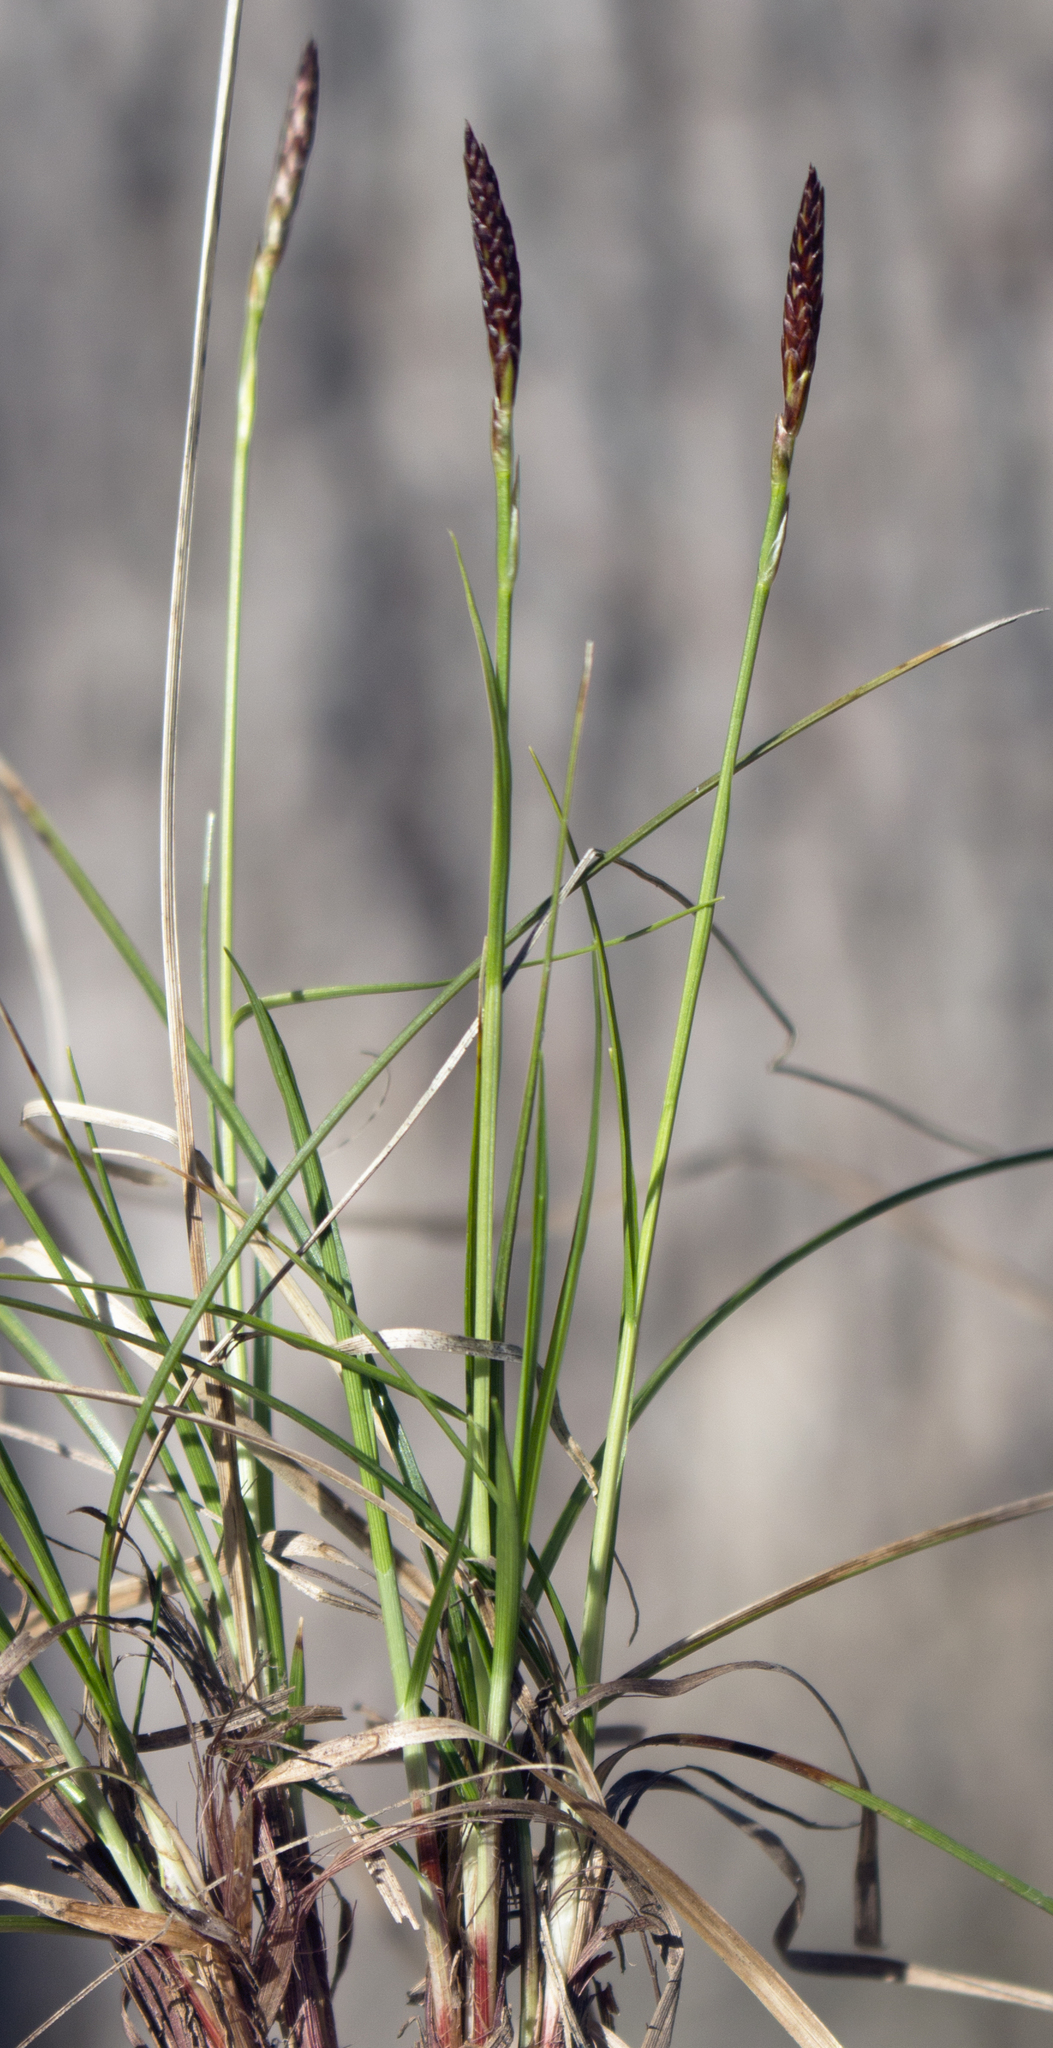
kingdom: Plantae
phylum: Tracheophyta
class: Liliopsida
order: Poales
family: Cyperaceae
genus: Carex
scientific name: Carex pensylvanica
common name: Common oak sedge
